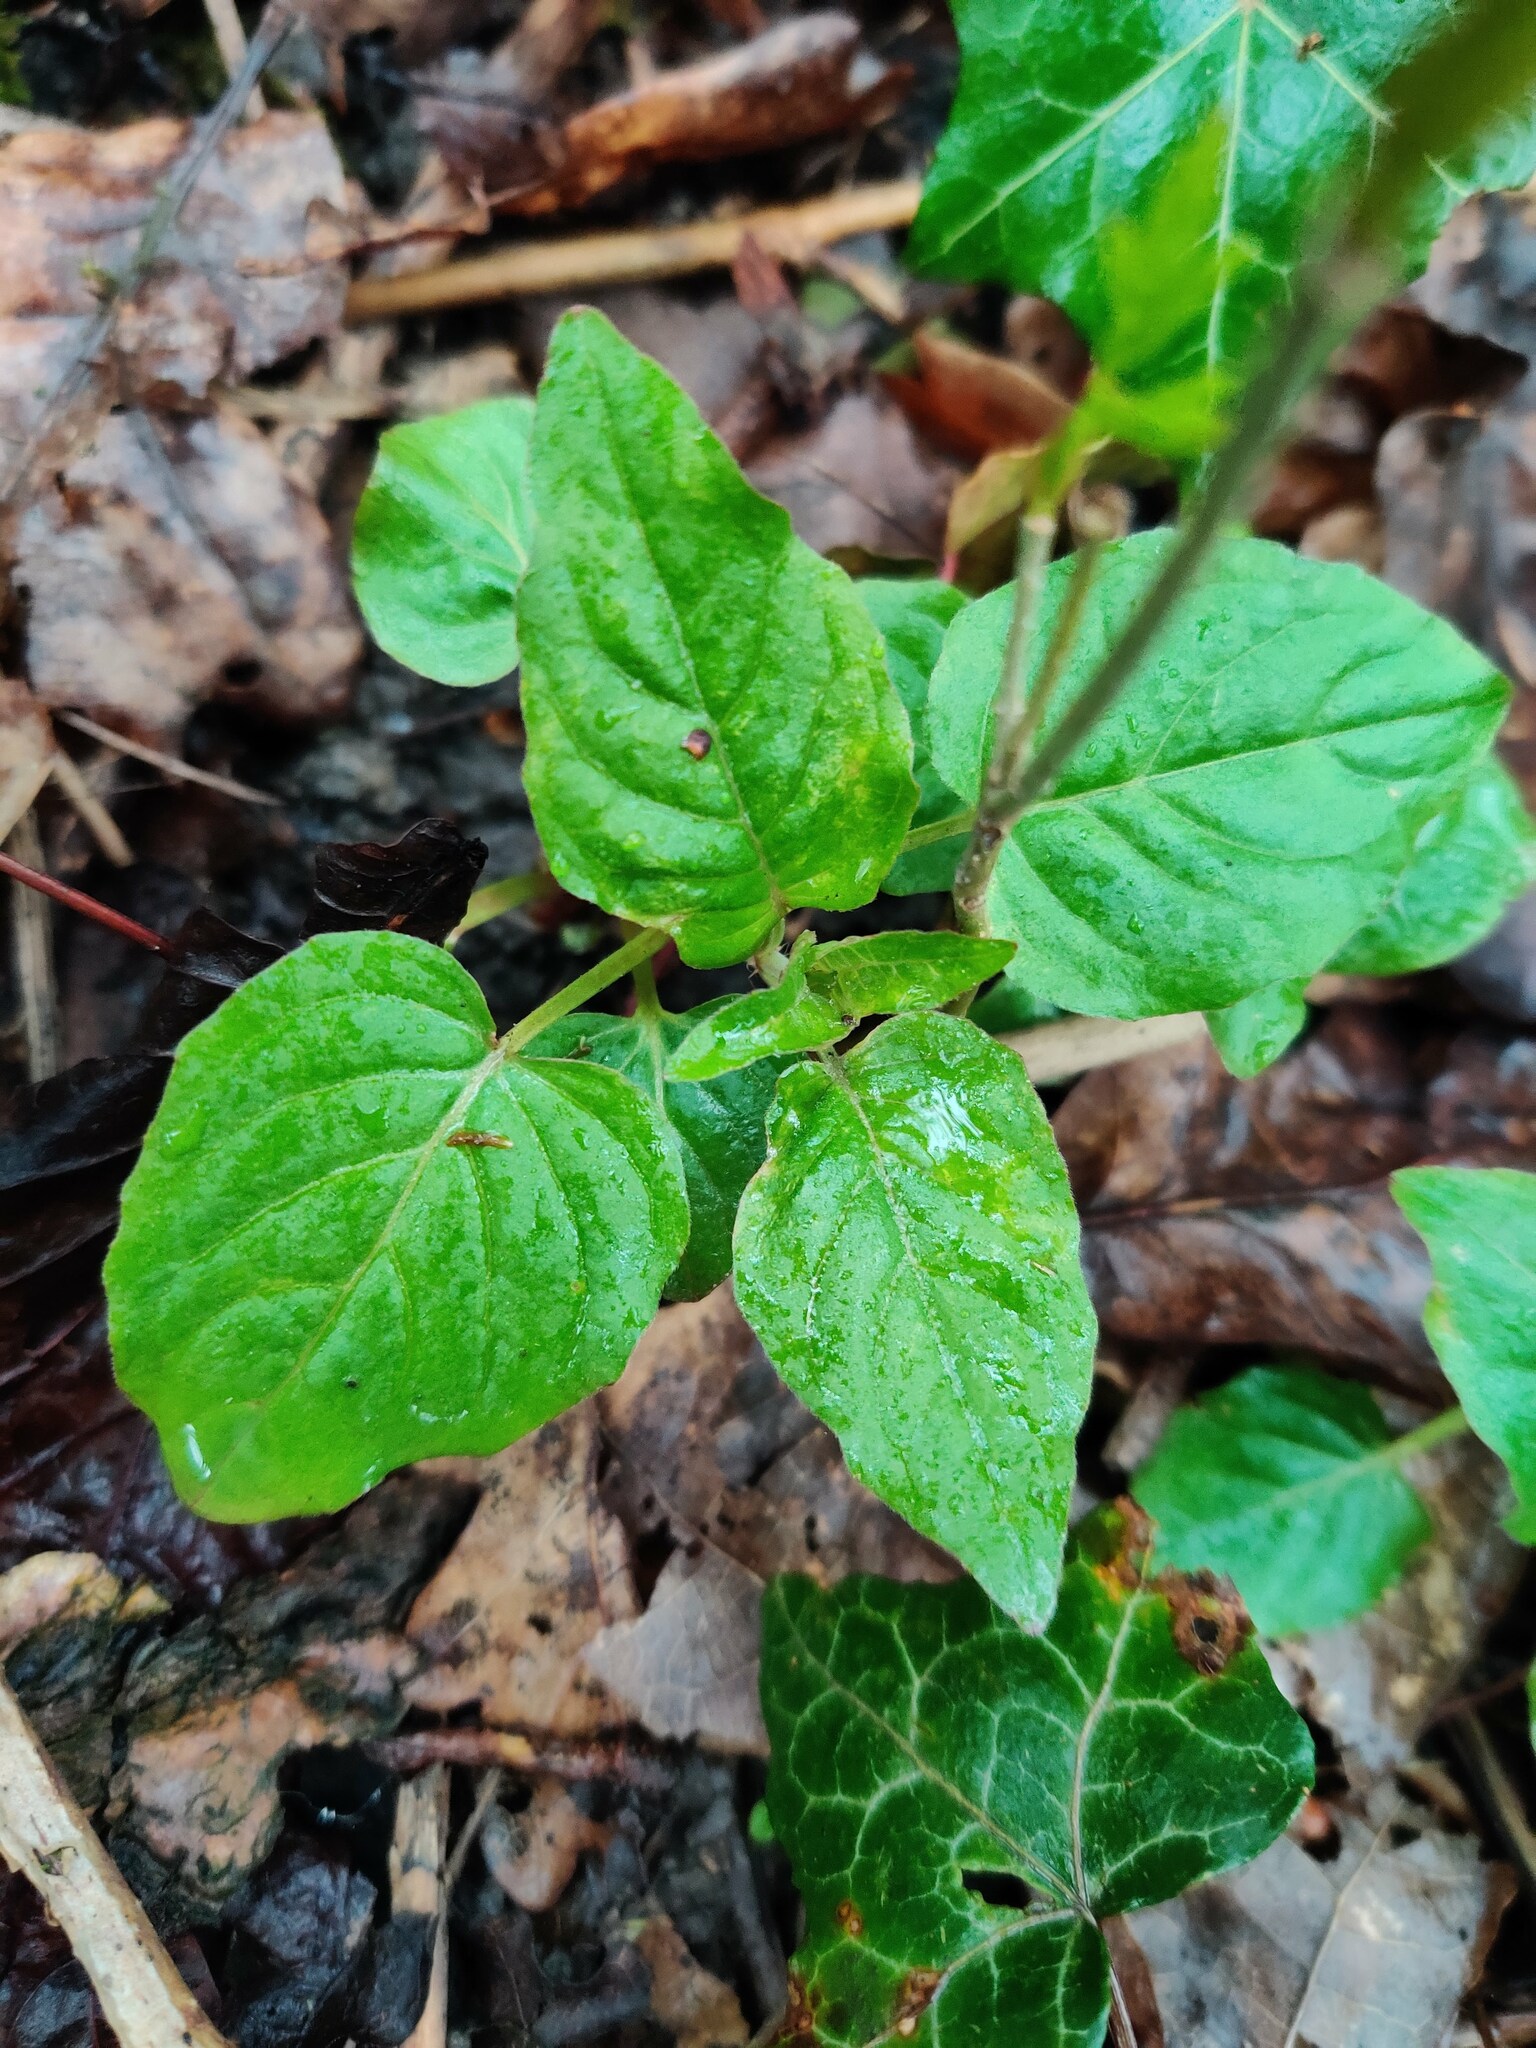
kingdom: Plantae
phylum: Tracheophyta
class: Magnoliopsida
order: Myrtales
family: Onagraceae
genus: Circaea
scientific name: Circaea lutetiana
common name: Enchanter's-nightshade
